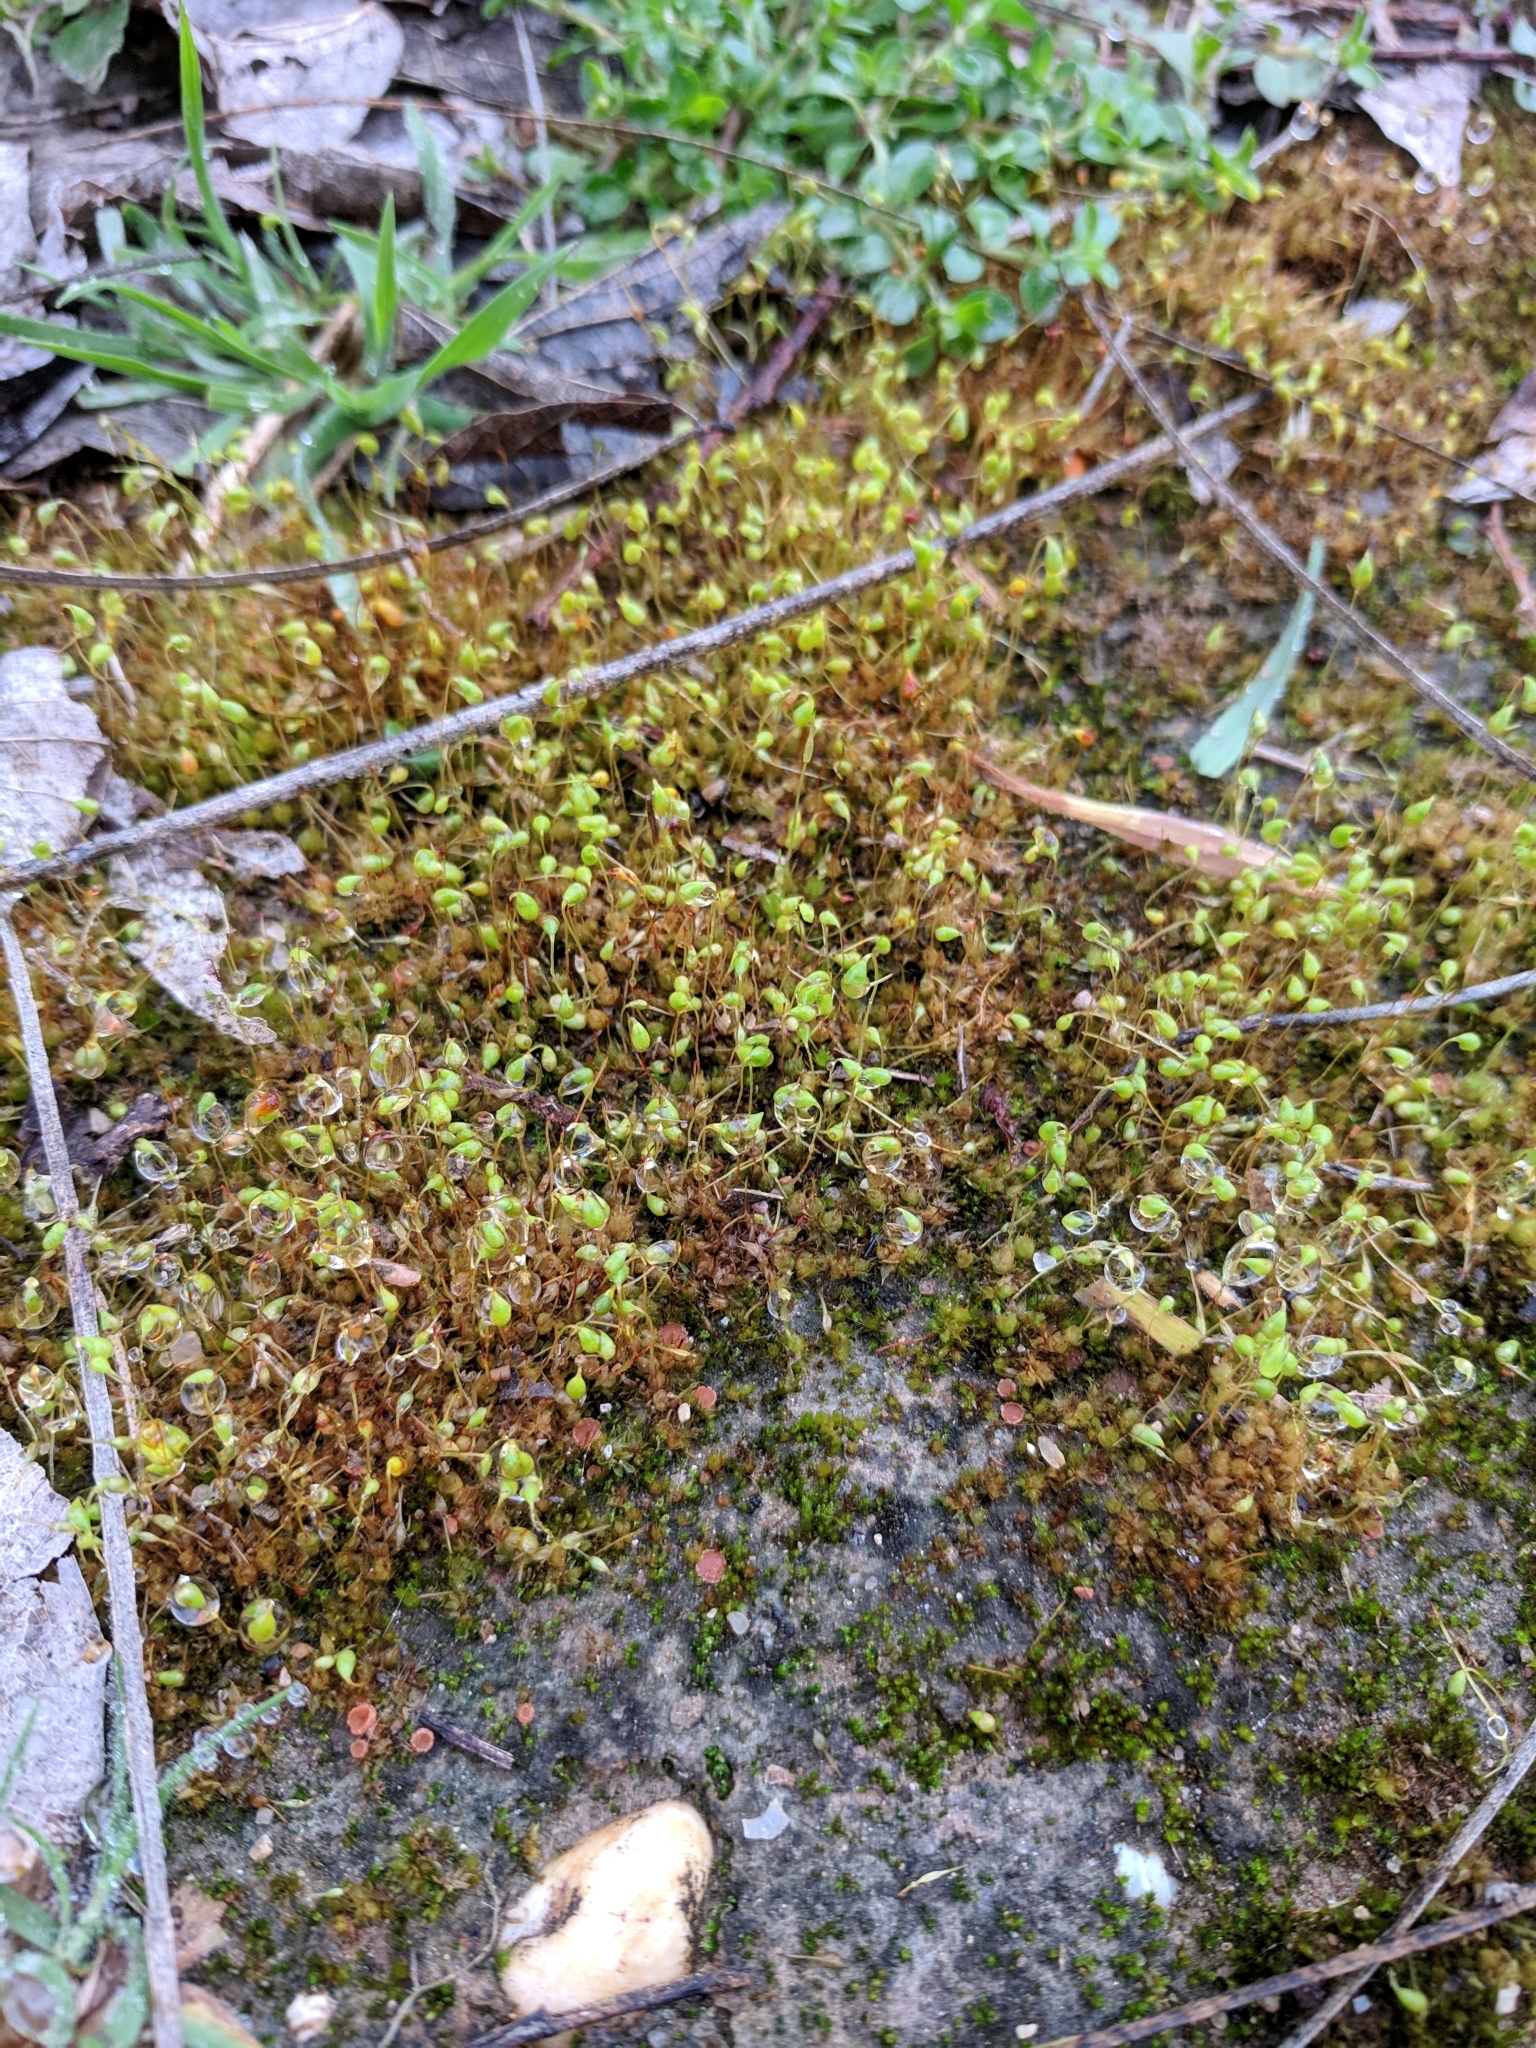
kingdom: Plantae
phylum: Bryophyta
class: Bryopsida
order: Funariales
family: Funariaceae
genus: Funaria
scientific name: Funaria hygrometrica
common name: Common cord moss
